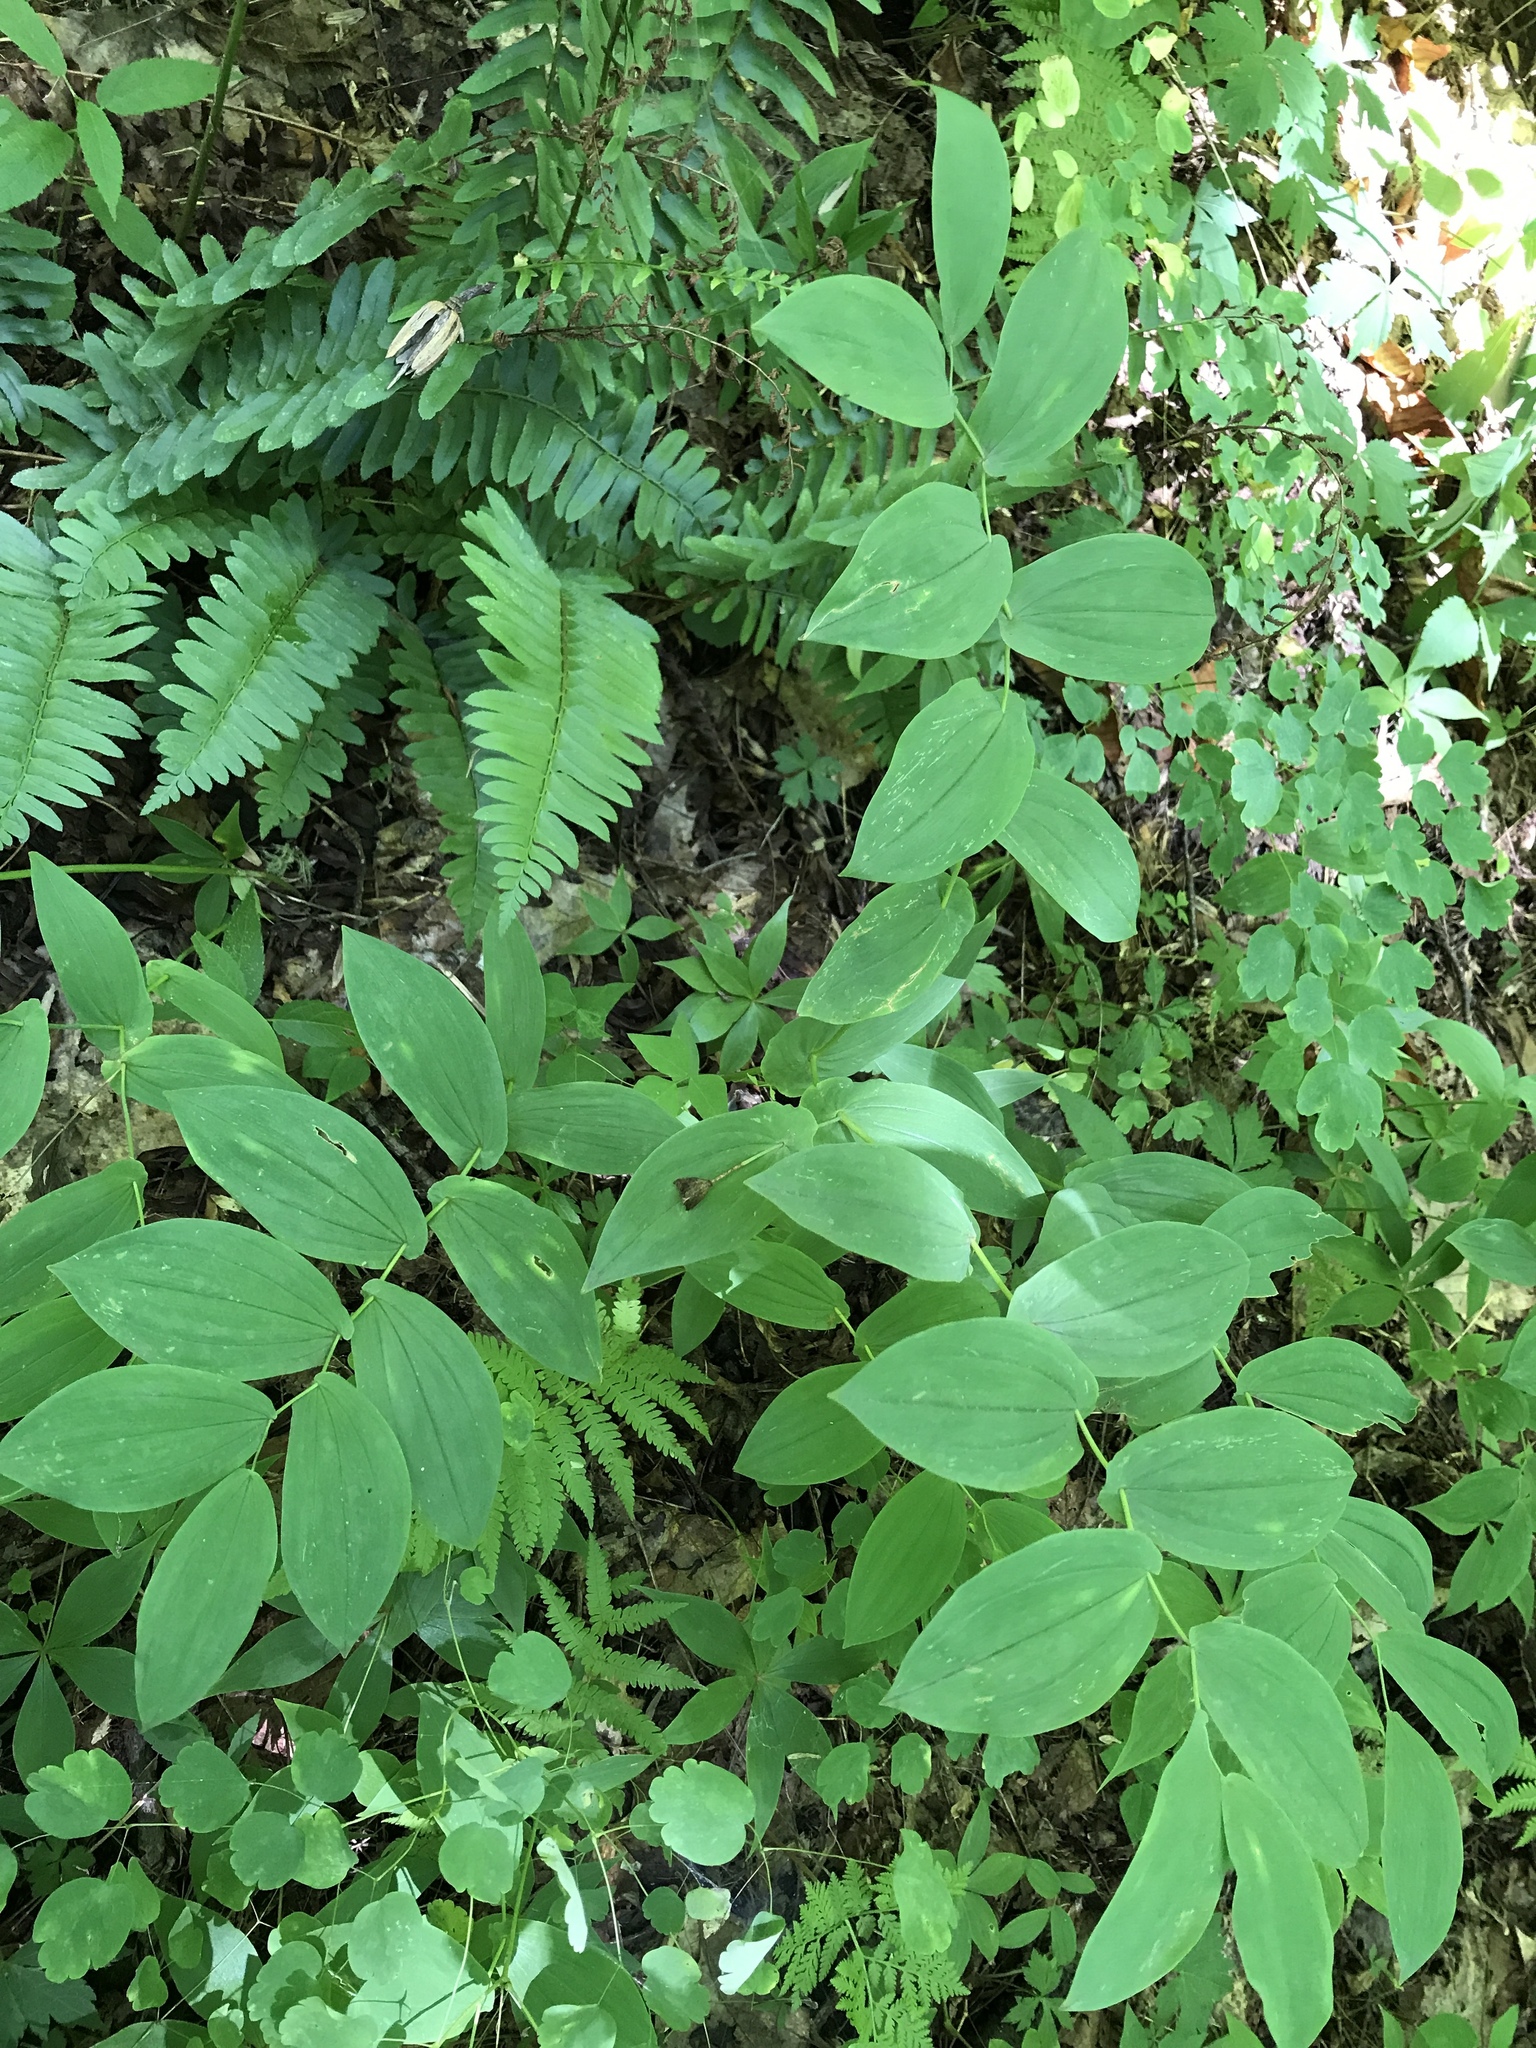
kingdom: Plantae
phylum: Tracheophyta
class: Liliopsida
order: Liliales
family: Colchicaceae
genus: Uvularia
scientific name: Uvularia grandiflora
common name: Bellwort
